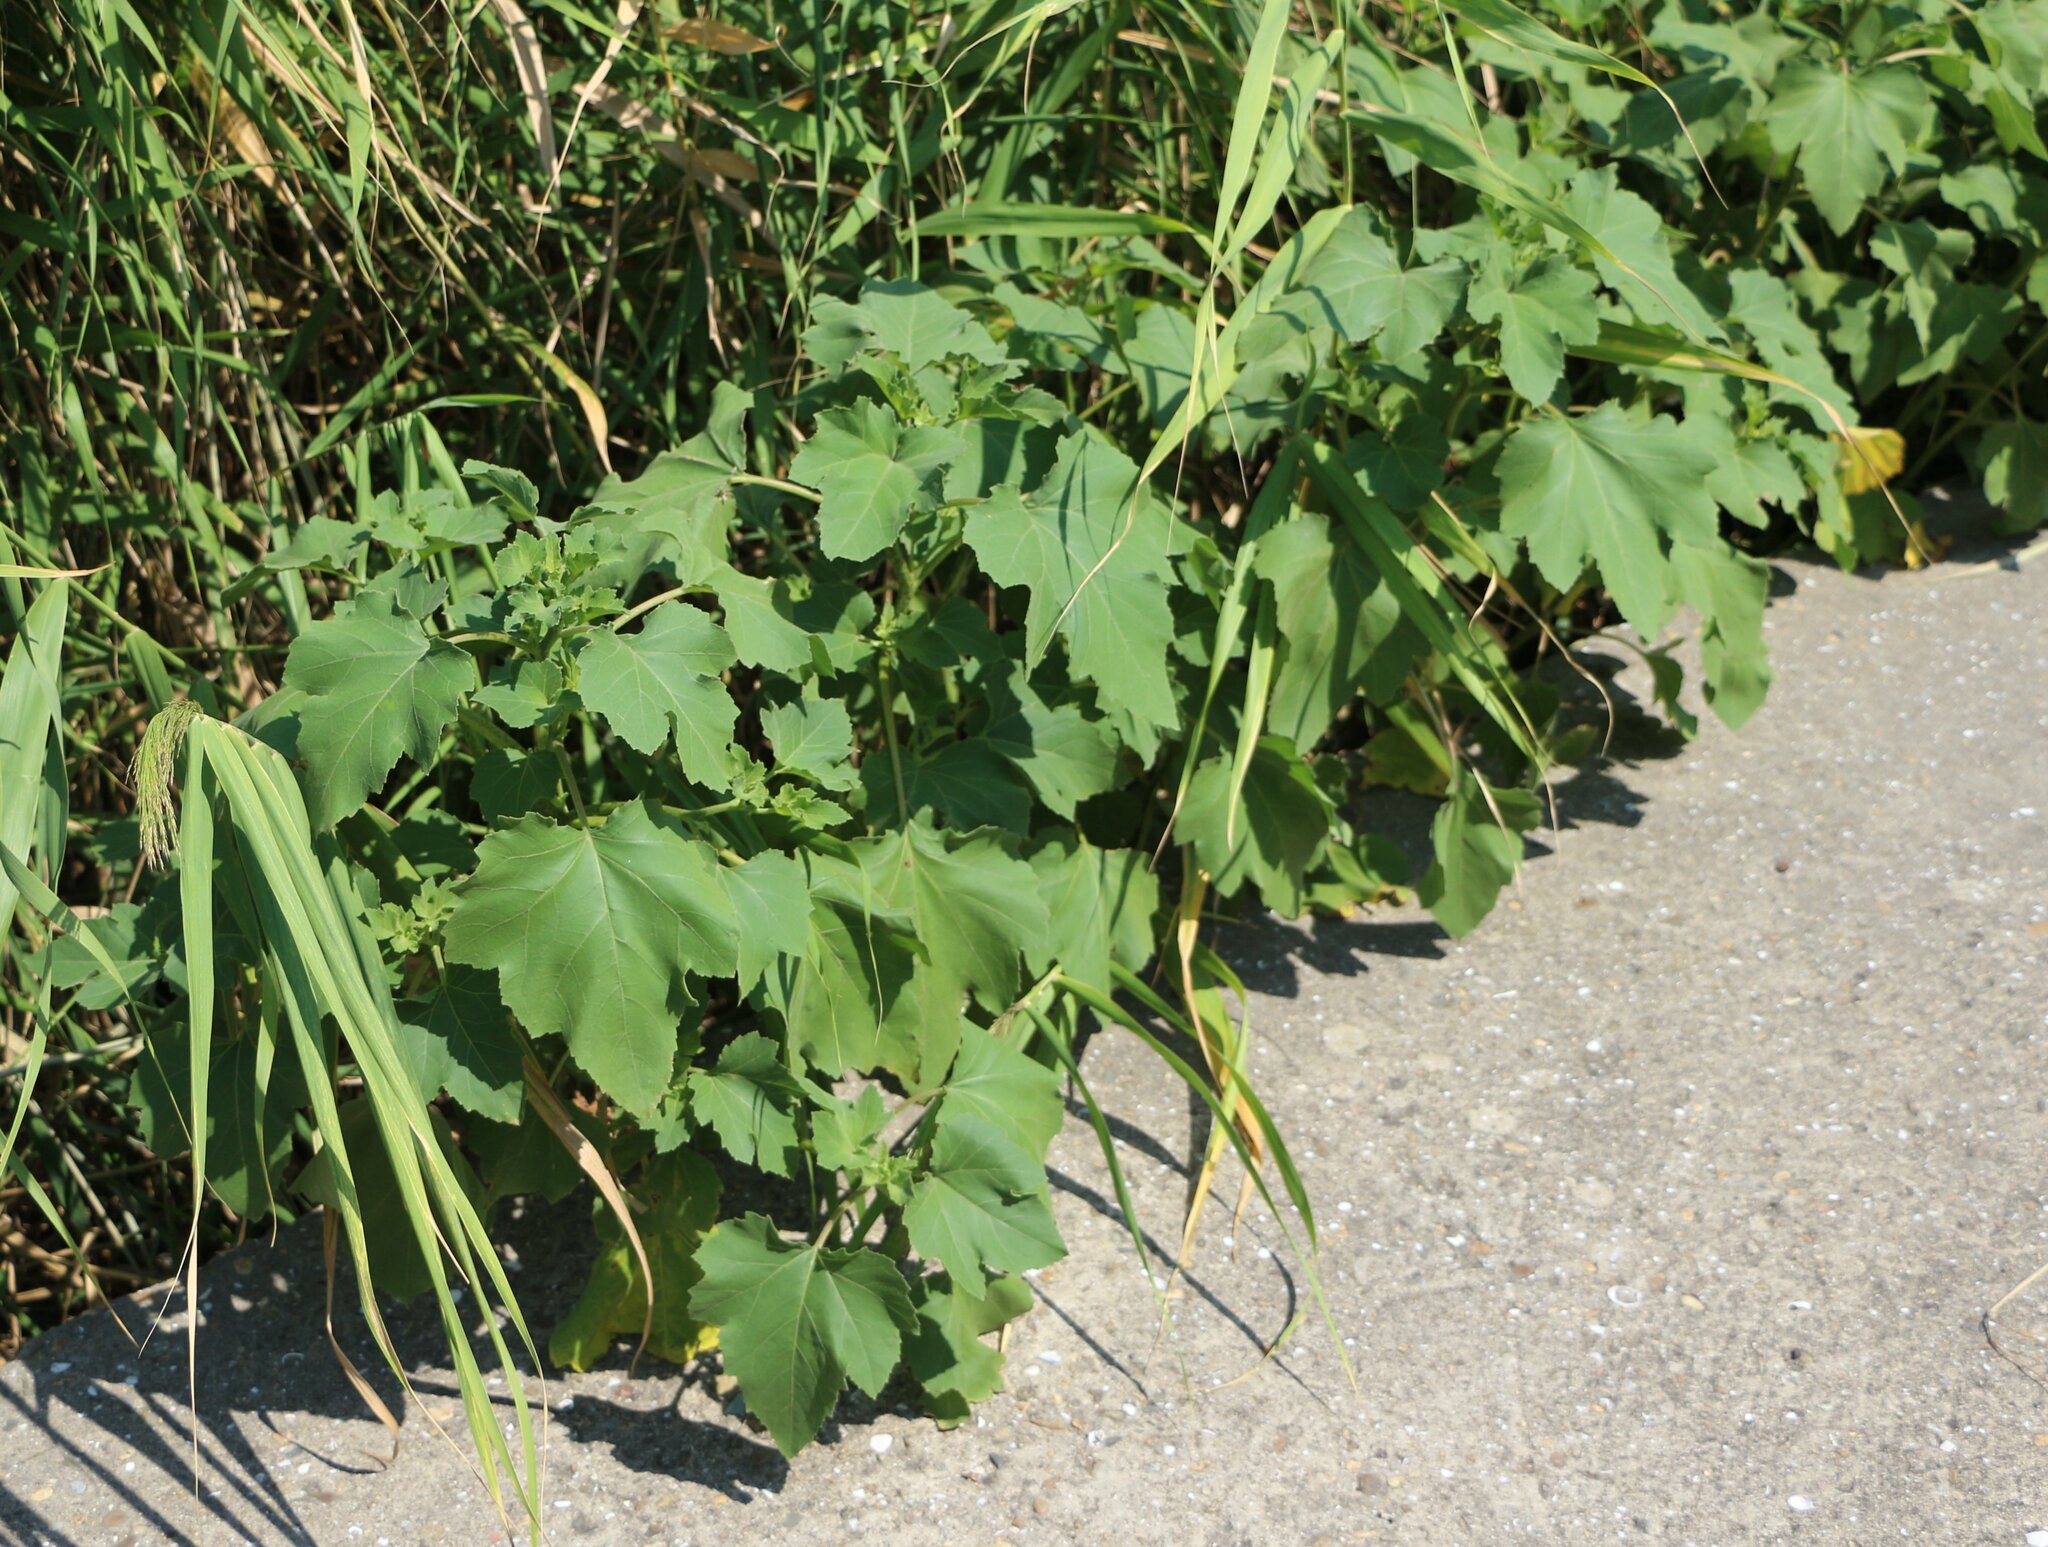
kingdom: Plantae
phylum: Tracheophyta
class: Magnoliopsida
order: Asterales
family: Asteraceae
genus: Xanthium
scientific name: Xanthium orientale
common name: Californian burr
